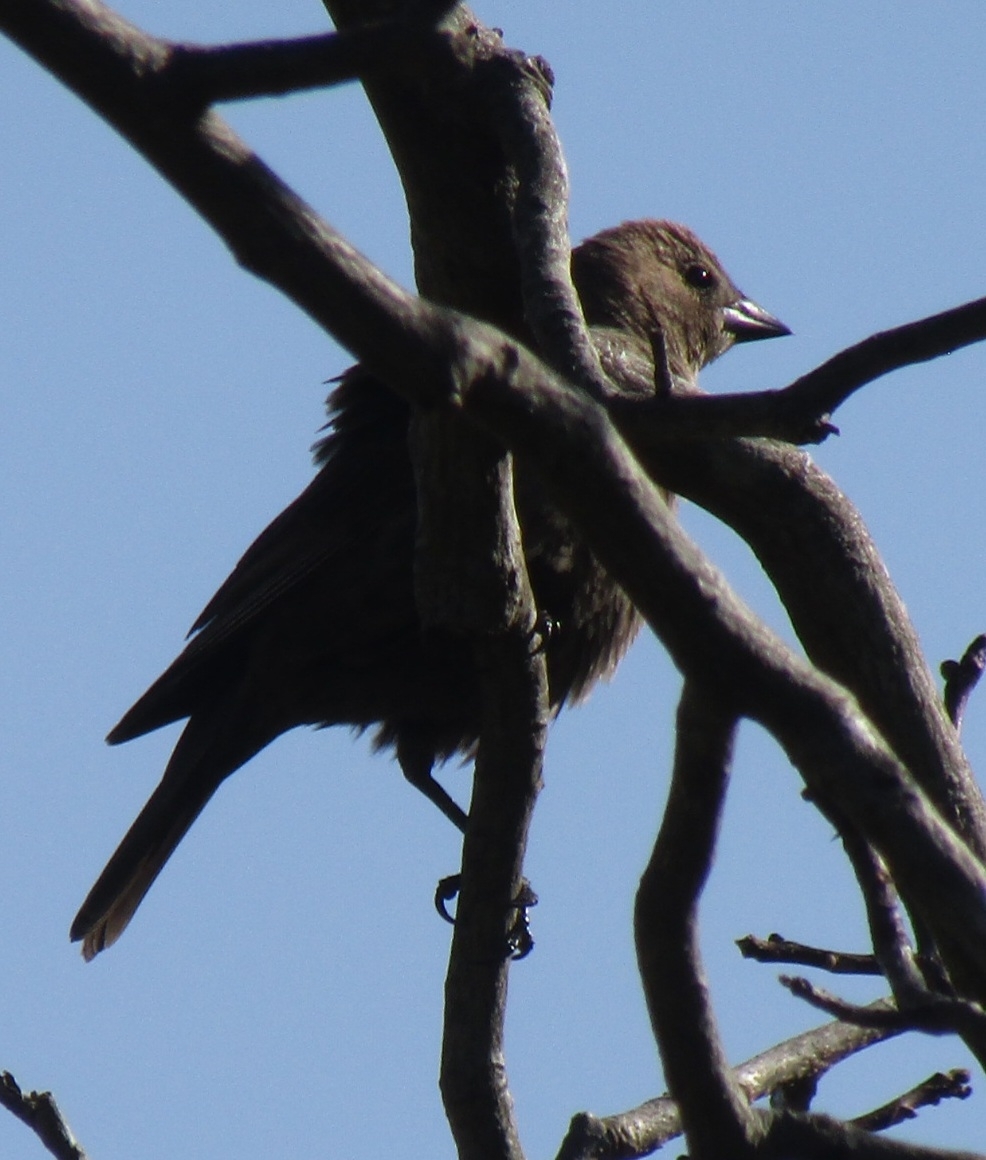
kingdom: Animalia
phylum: Chordata
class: Aves
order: Passeriformes
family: Icteridae
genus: Molothrus
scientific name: Molothrus ater
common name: Brown-headed cowbird
